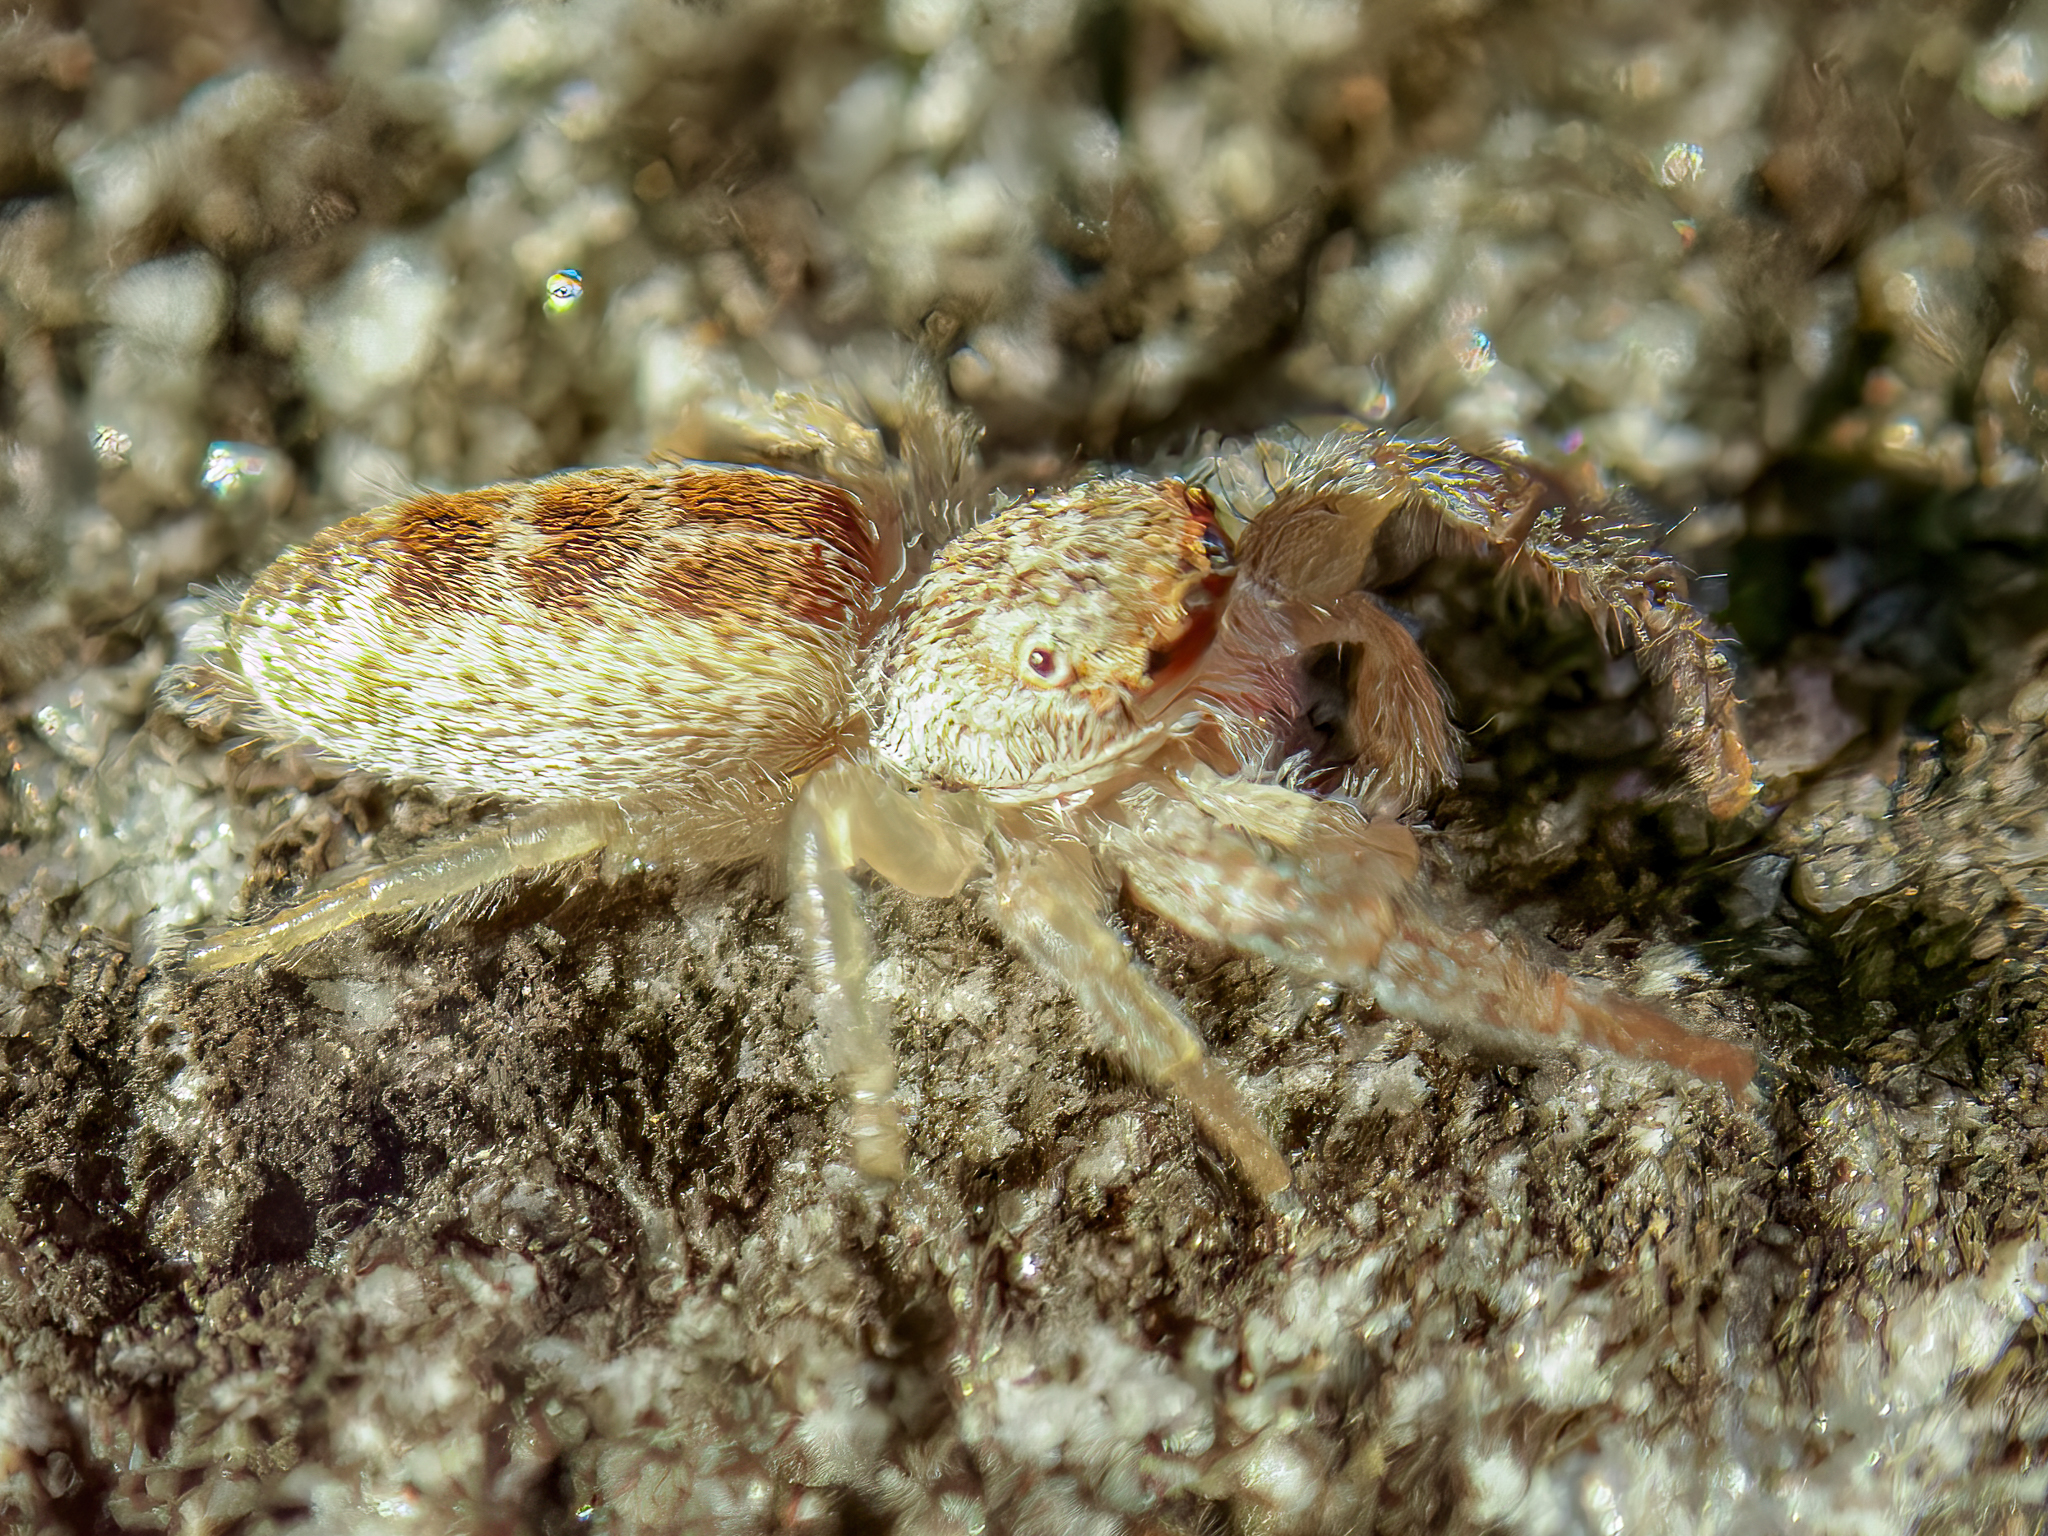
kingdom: Animalia
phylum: Arthropoda
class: Arachnida
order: Araneae
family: Salticidae
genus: Hentzia
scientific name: Hentzia mitrata
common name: White-jawed jumping spider
